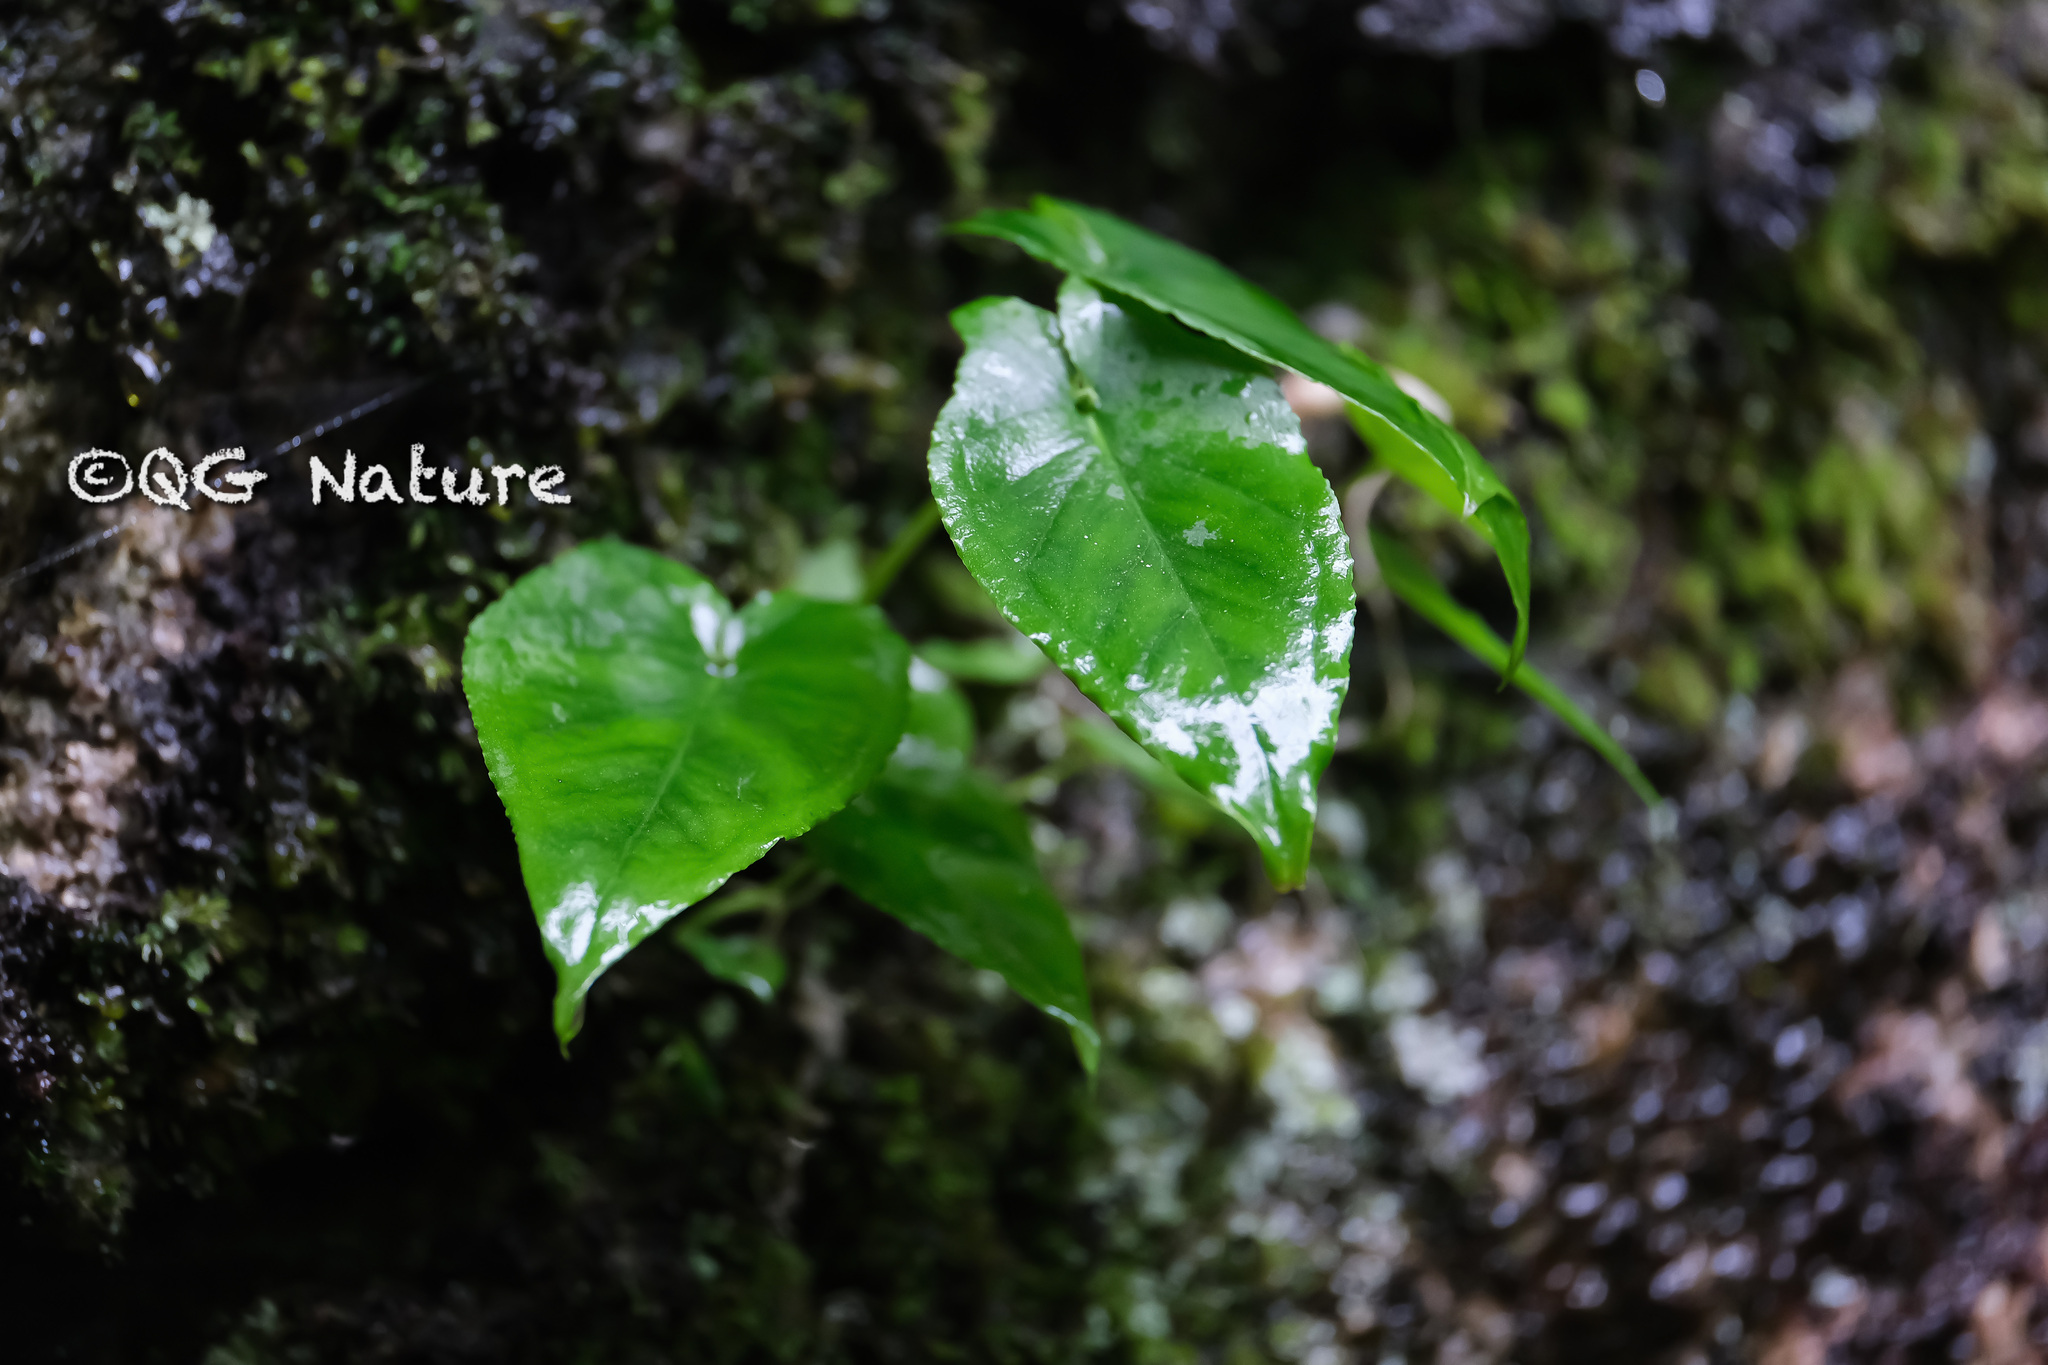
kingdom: Plantae
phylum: Tracheophyta
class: Liliopsida
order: Alismatales
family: Araceae
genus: Pinellia
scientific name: Pinellia cordata
